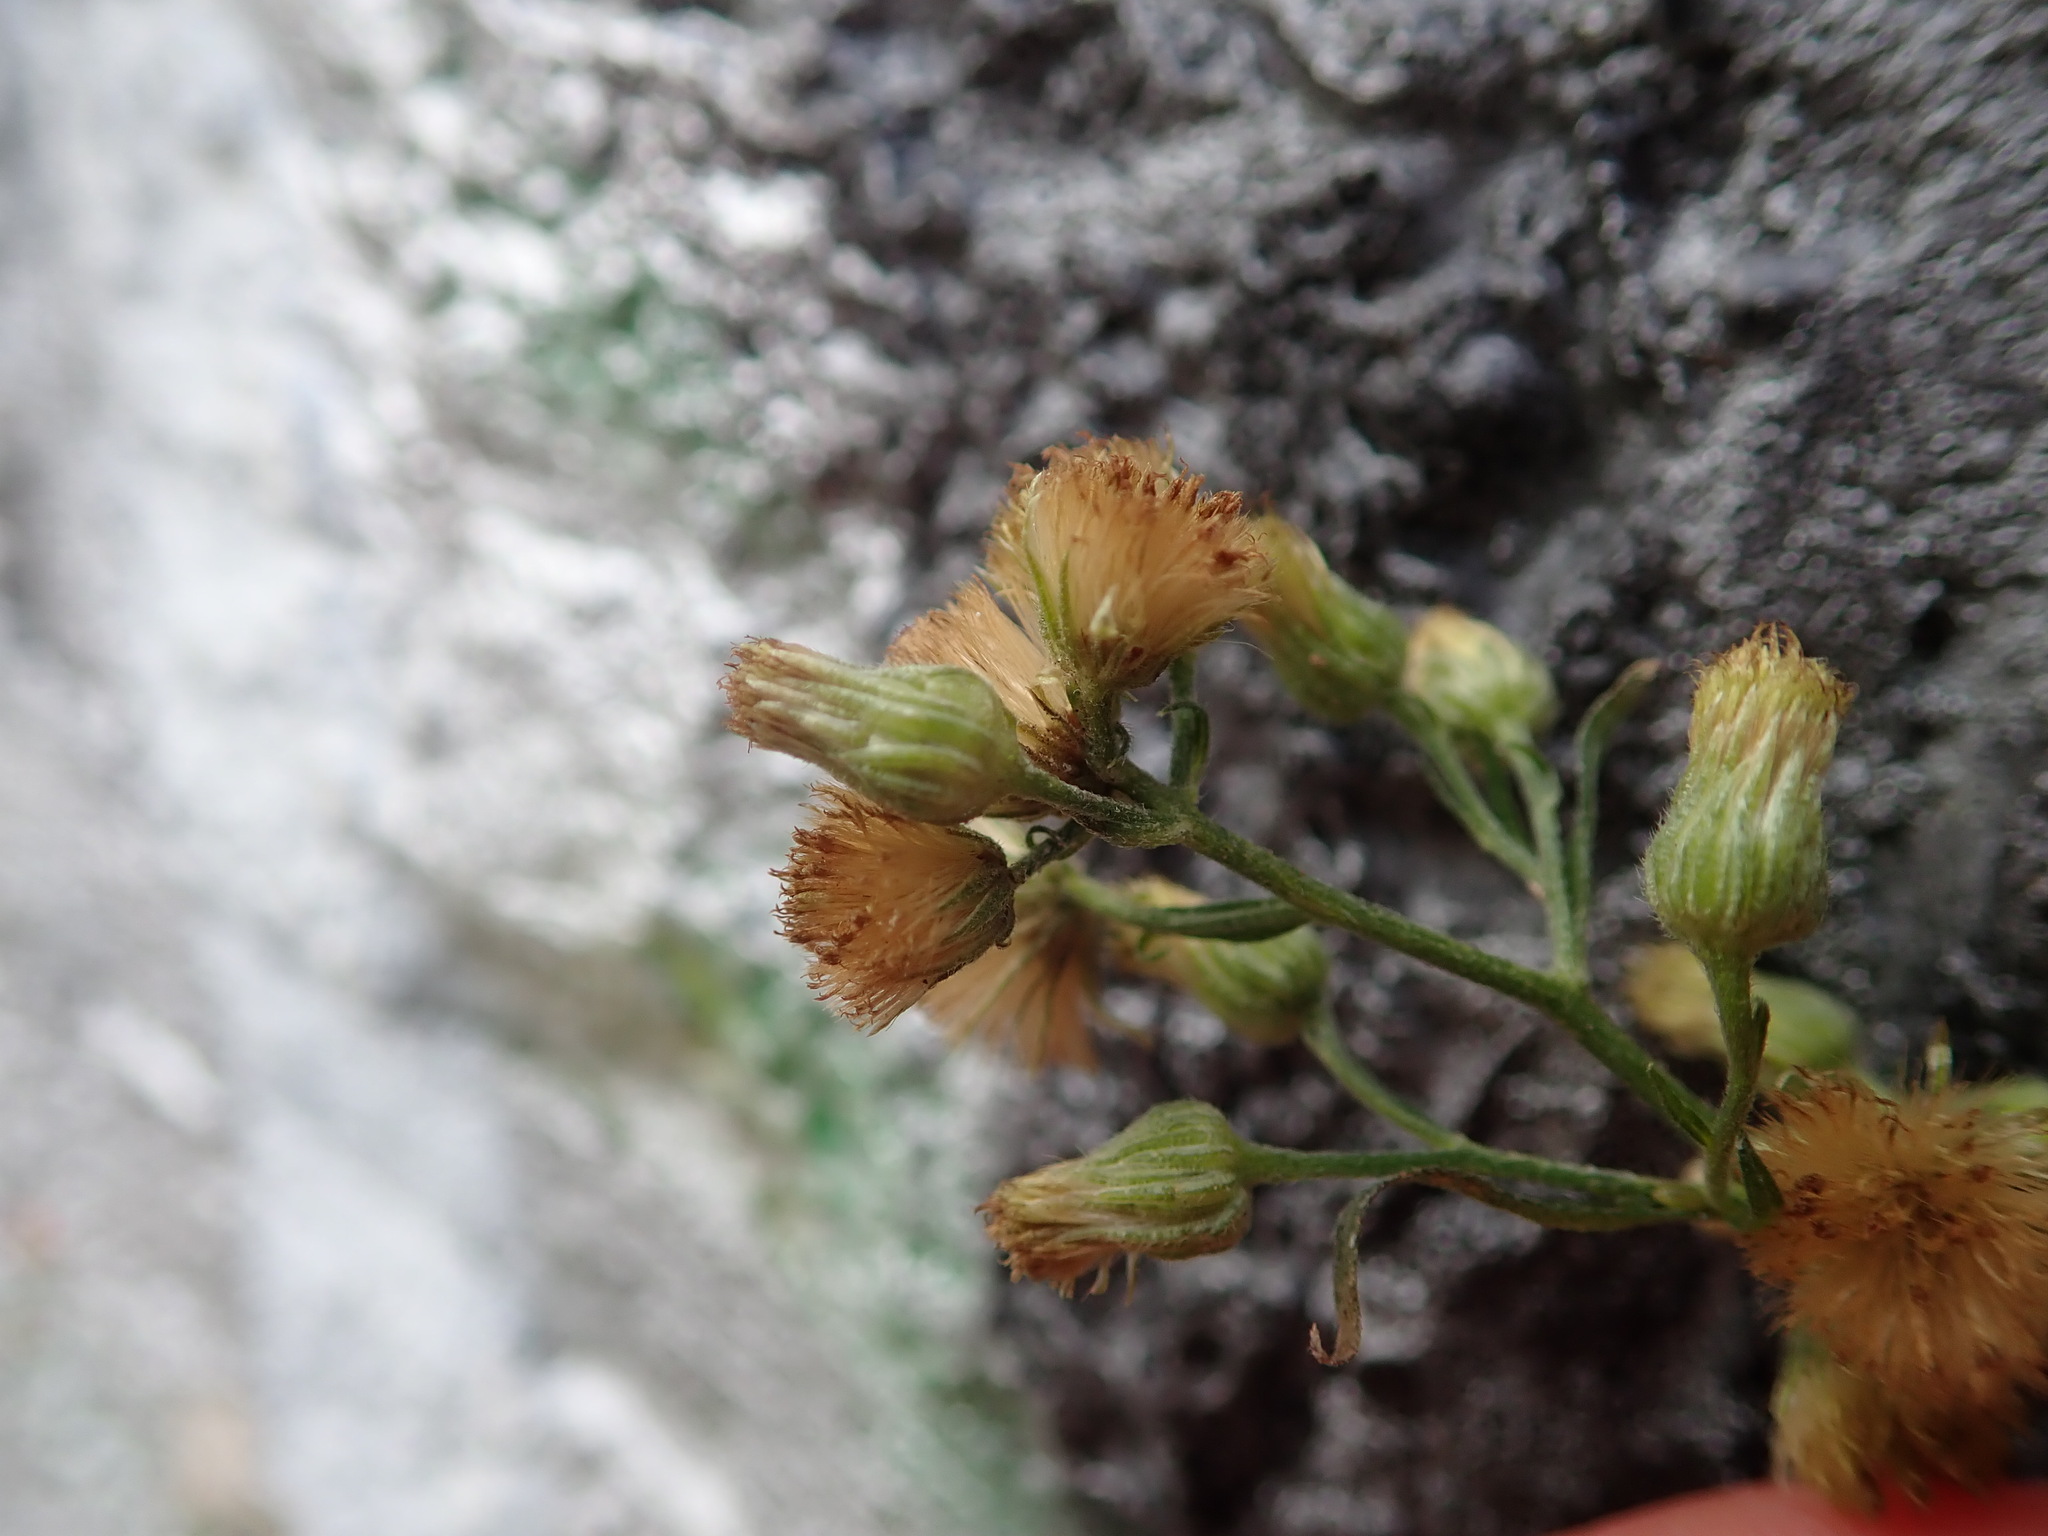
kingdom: Plantae
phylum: Tracheophyta
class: Magnoliopsida
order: Asterales
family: Asteraceae
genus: Erigeron
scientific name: Erigeron sumatrensis
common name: Daisy
